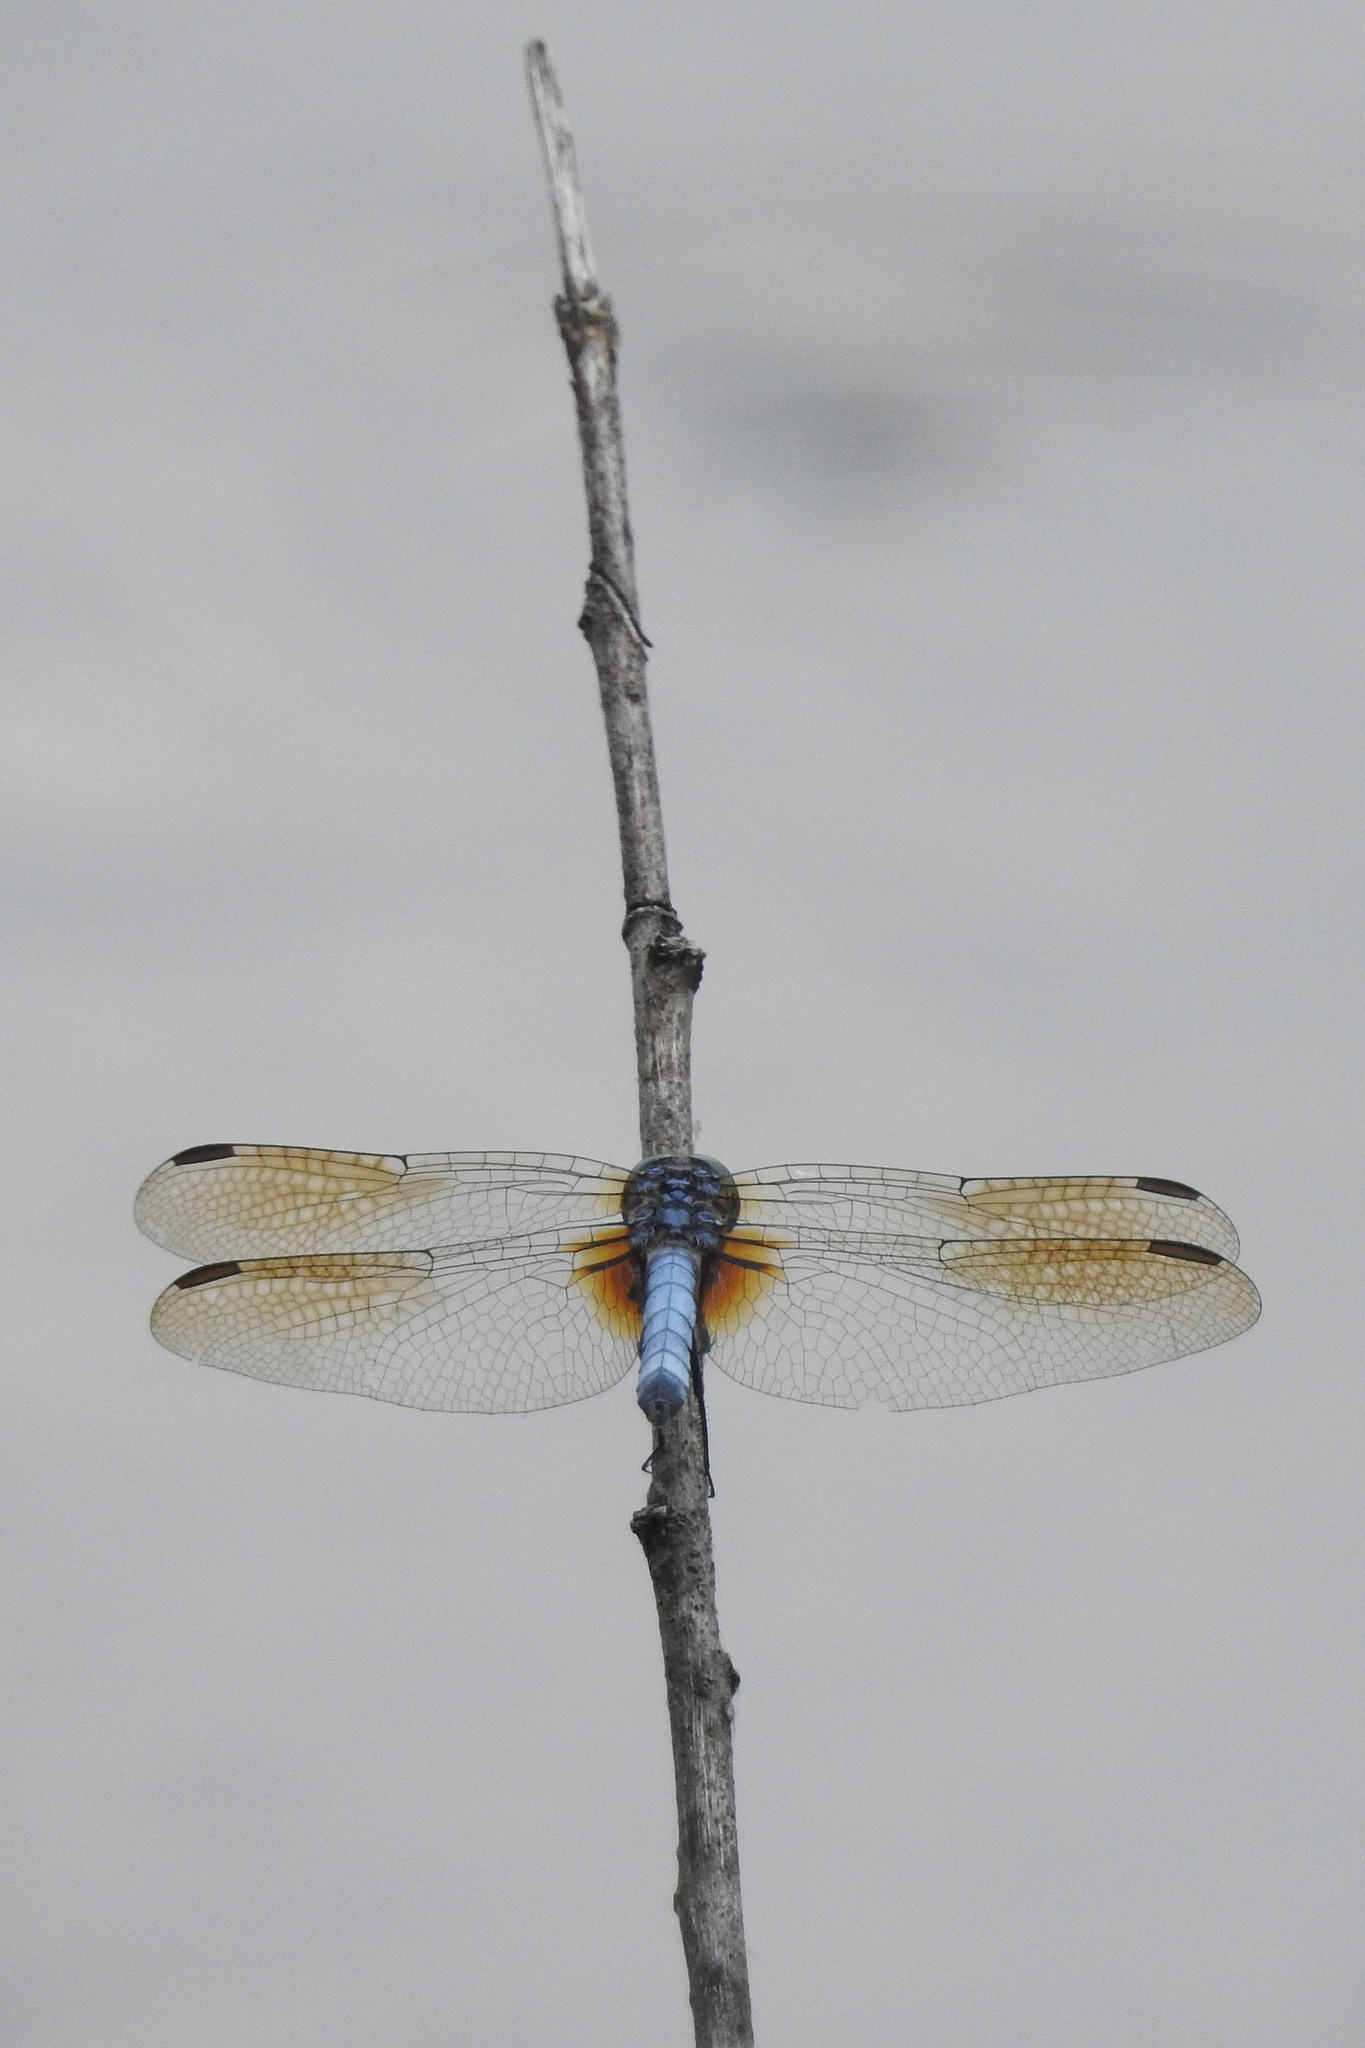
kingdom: Animalia
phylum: Arthropoda
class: Insecta
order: Odonata
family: Libellulidae
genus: Pachydiplax
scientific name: Pachydiplax longipennis
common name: Blue dasher
